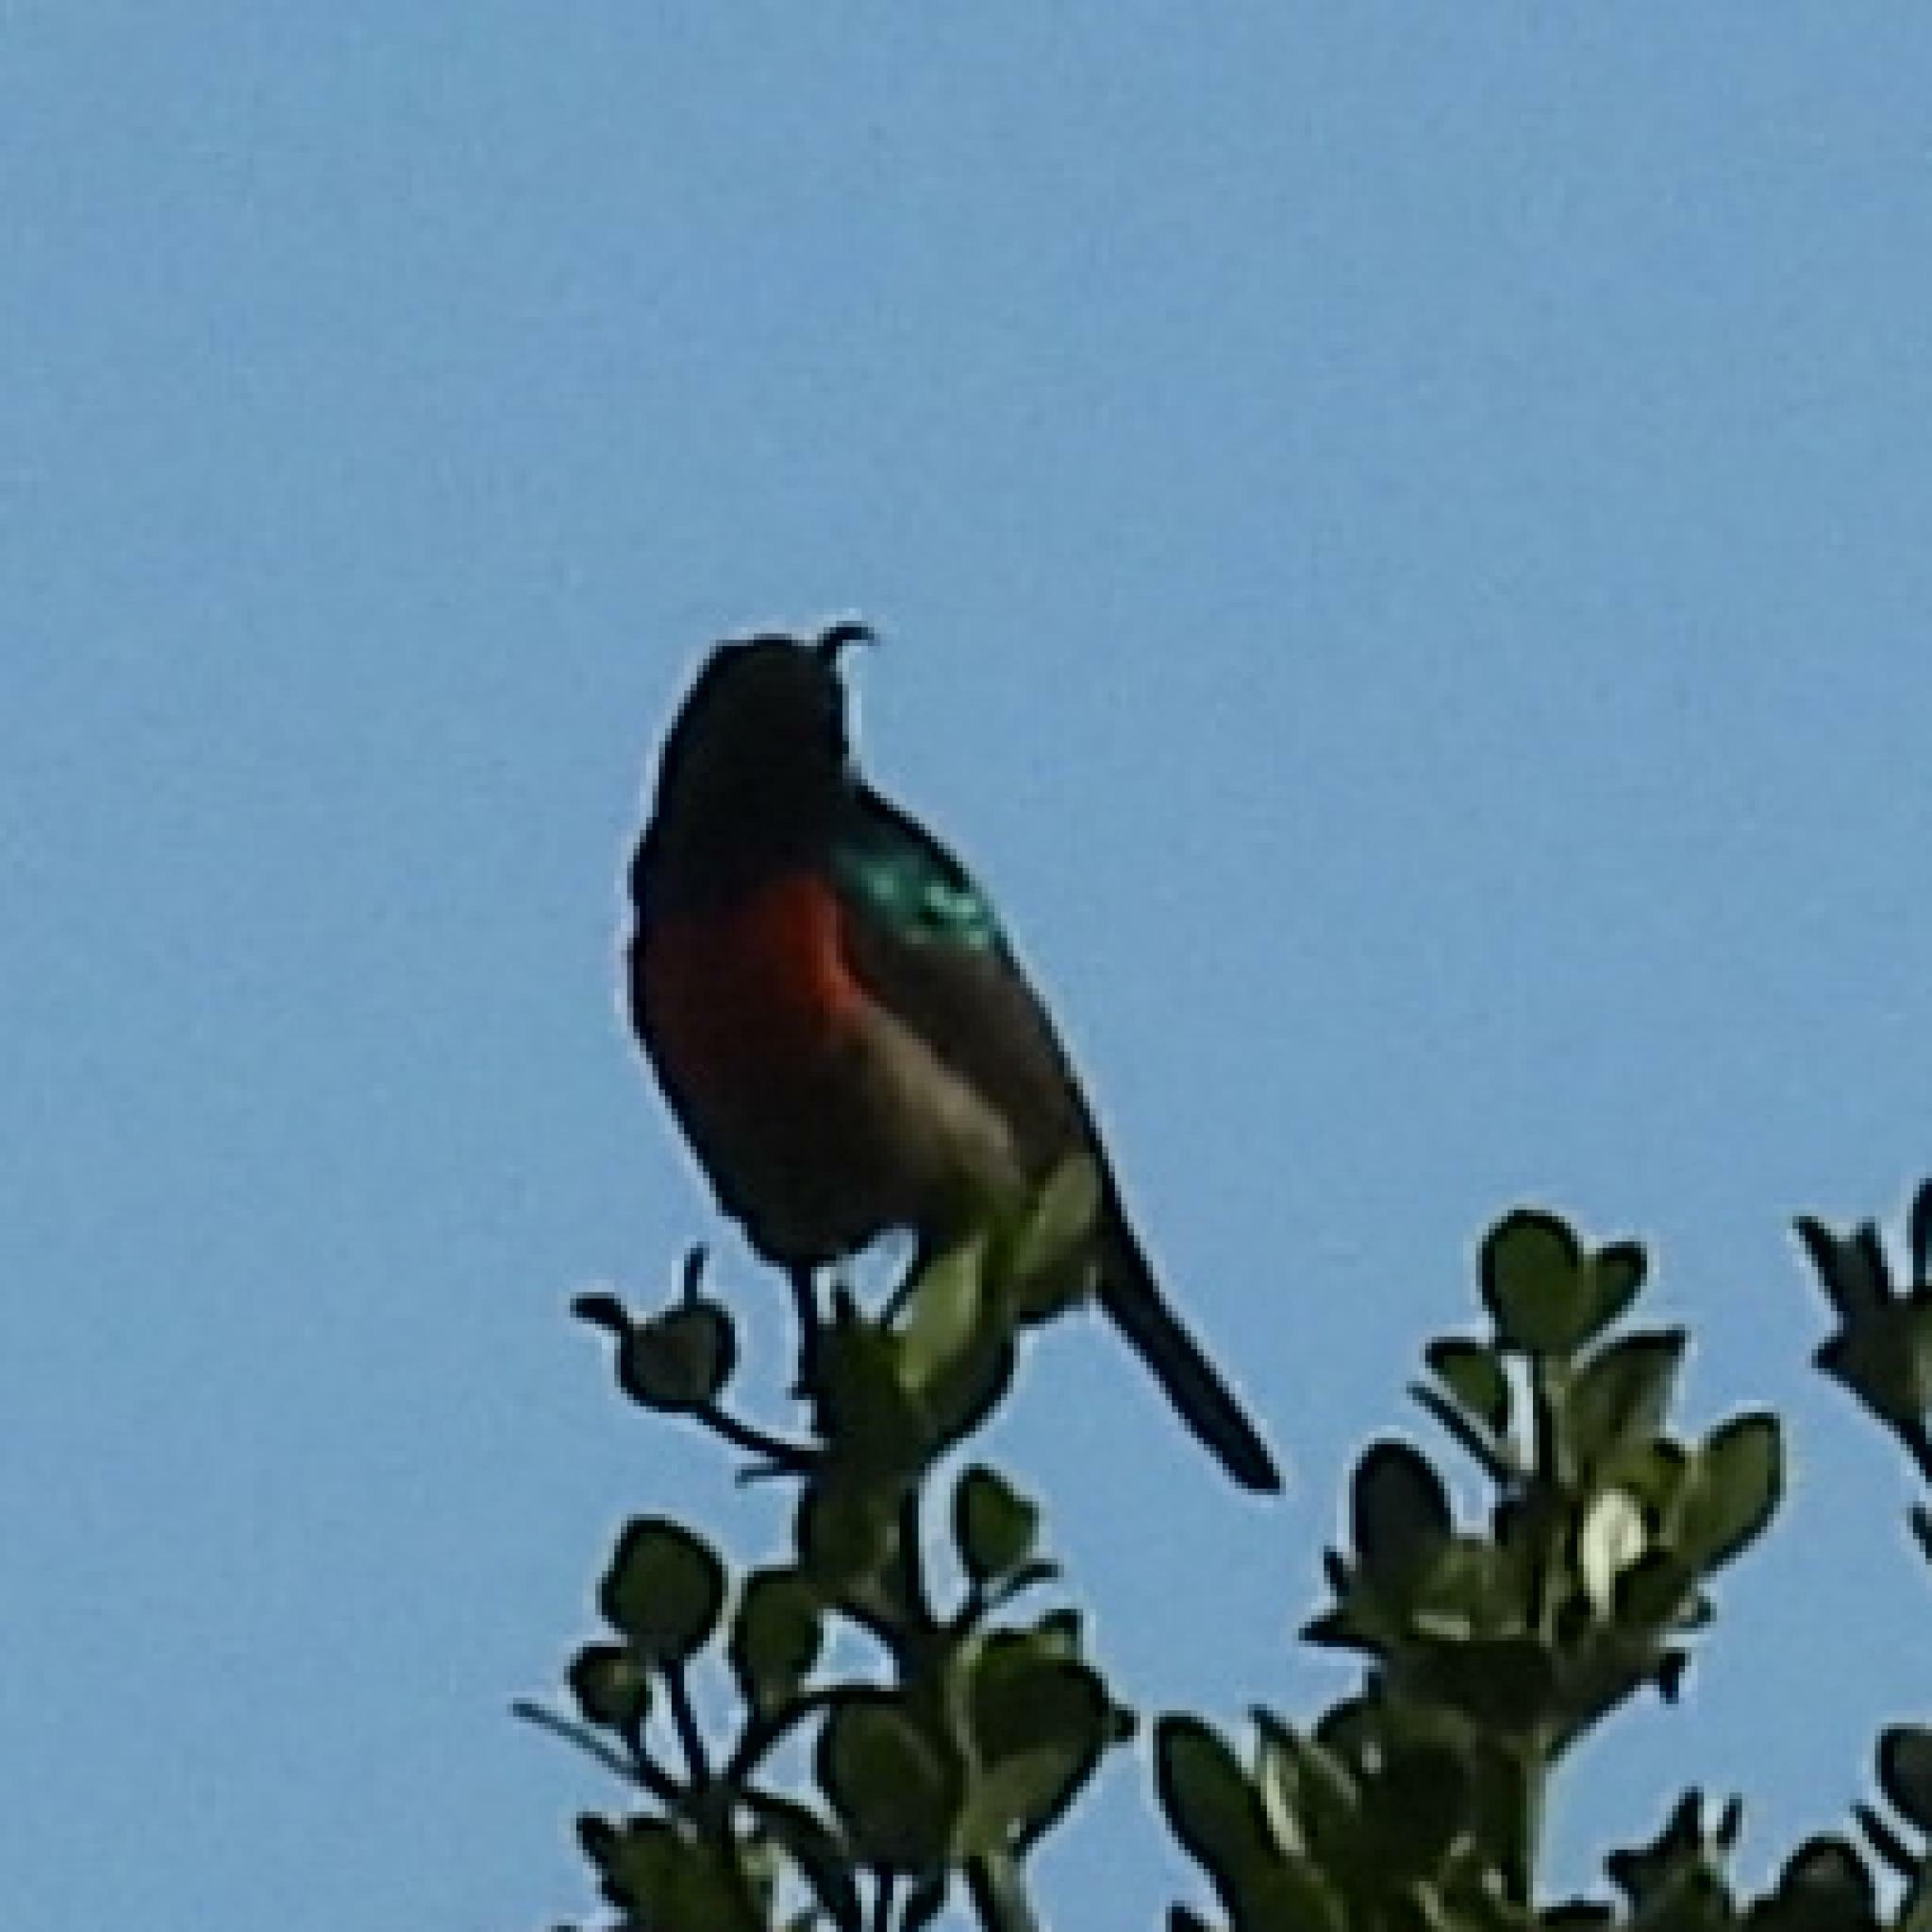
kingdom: Animalia
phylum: Chordata
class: Aves
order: Passeriformes
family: Nectariniidae
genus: Cinnyris
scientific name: Cinnyris afer
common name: Greater double-collared sunbird
